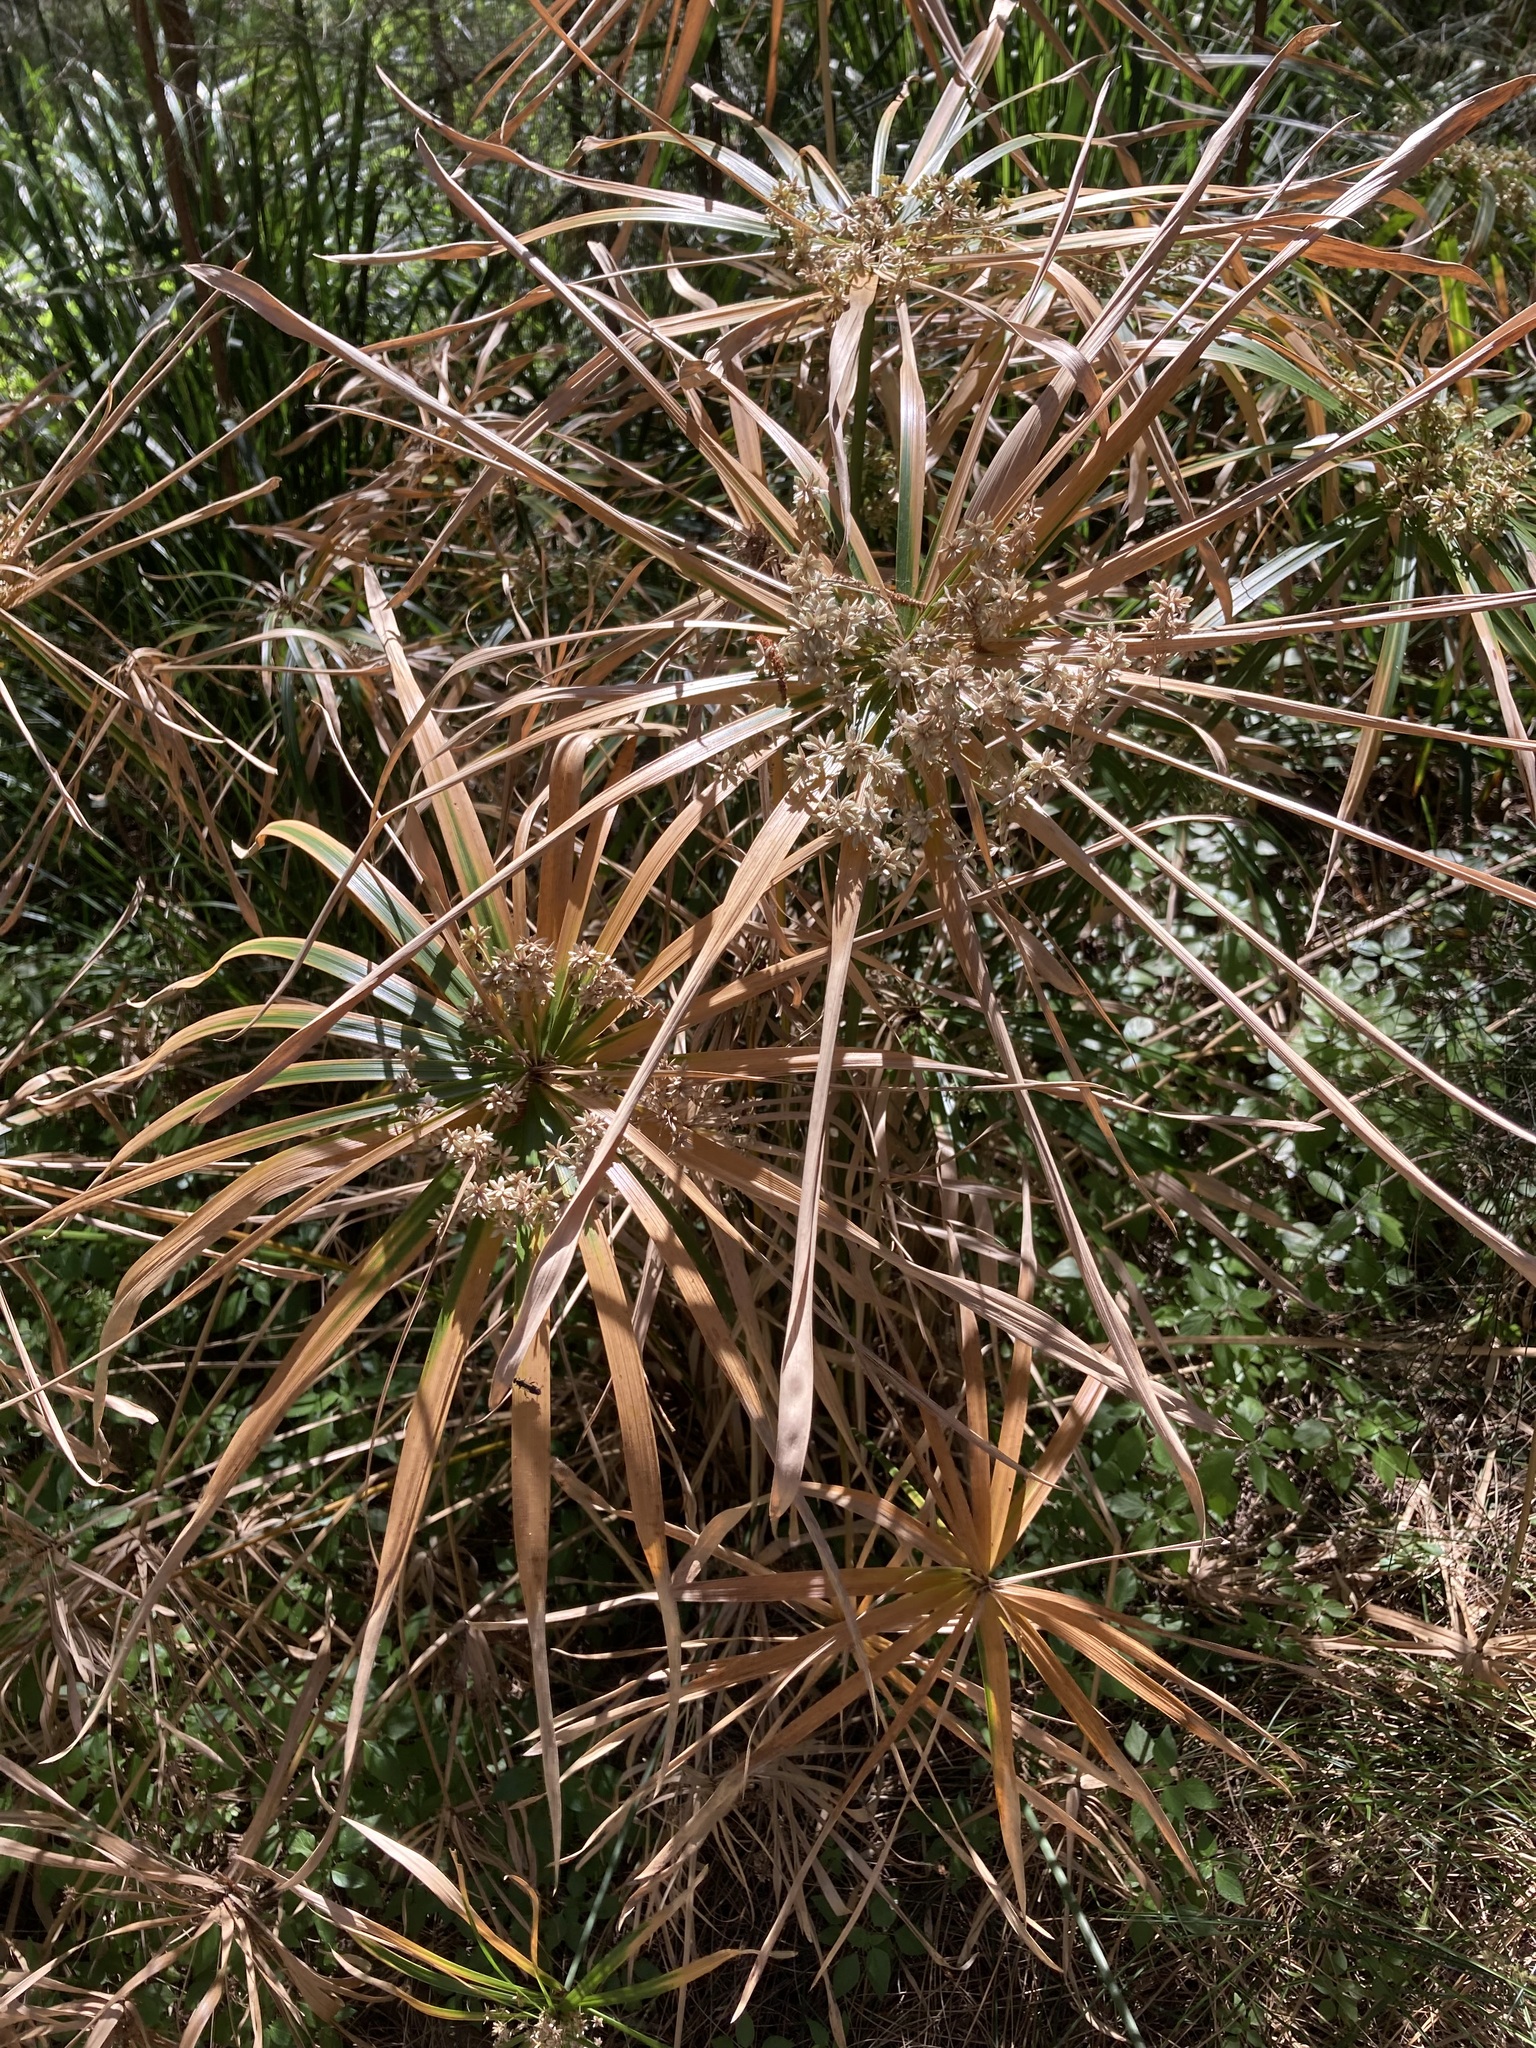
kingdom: Plantae
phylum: Tracheophyta
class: Liliopsida
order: Poales
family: Cyperaceae
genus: Cyperus
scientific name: Cyperus alternifolius
